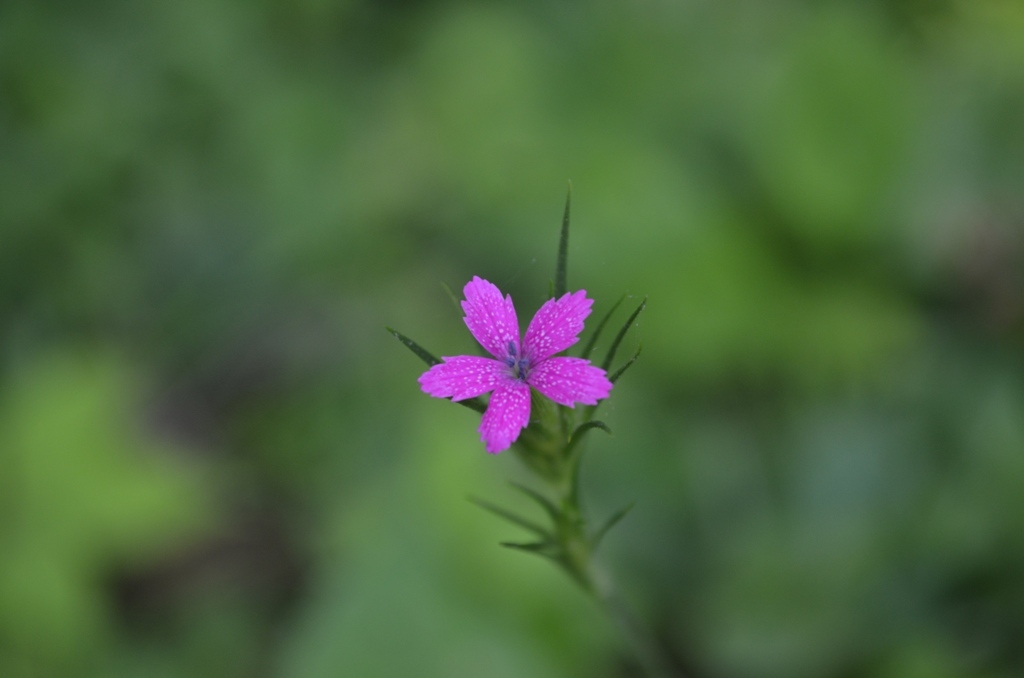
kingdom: Plantae
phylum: Tracheophyta
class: Magnoliopsida
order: Caryophyllales
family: Caryophyllaceae
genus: Dianthus
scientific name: Dianthus armeria
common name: Deptford pink
